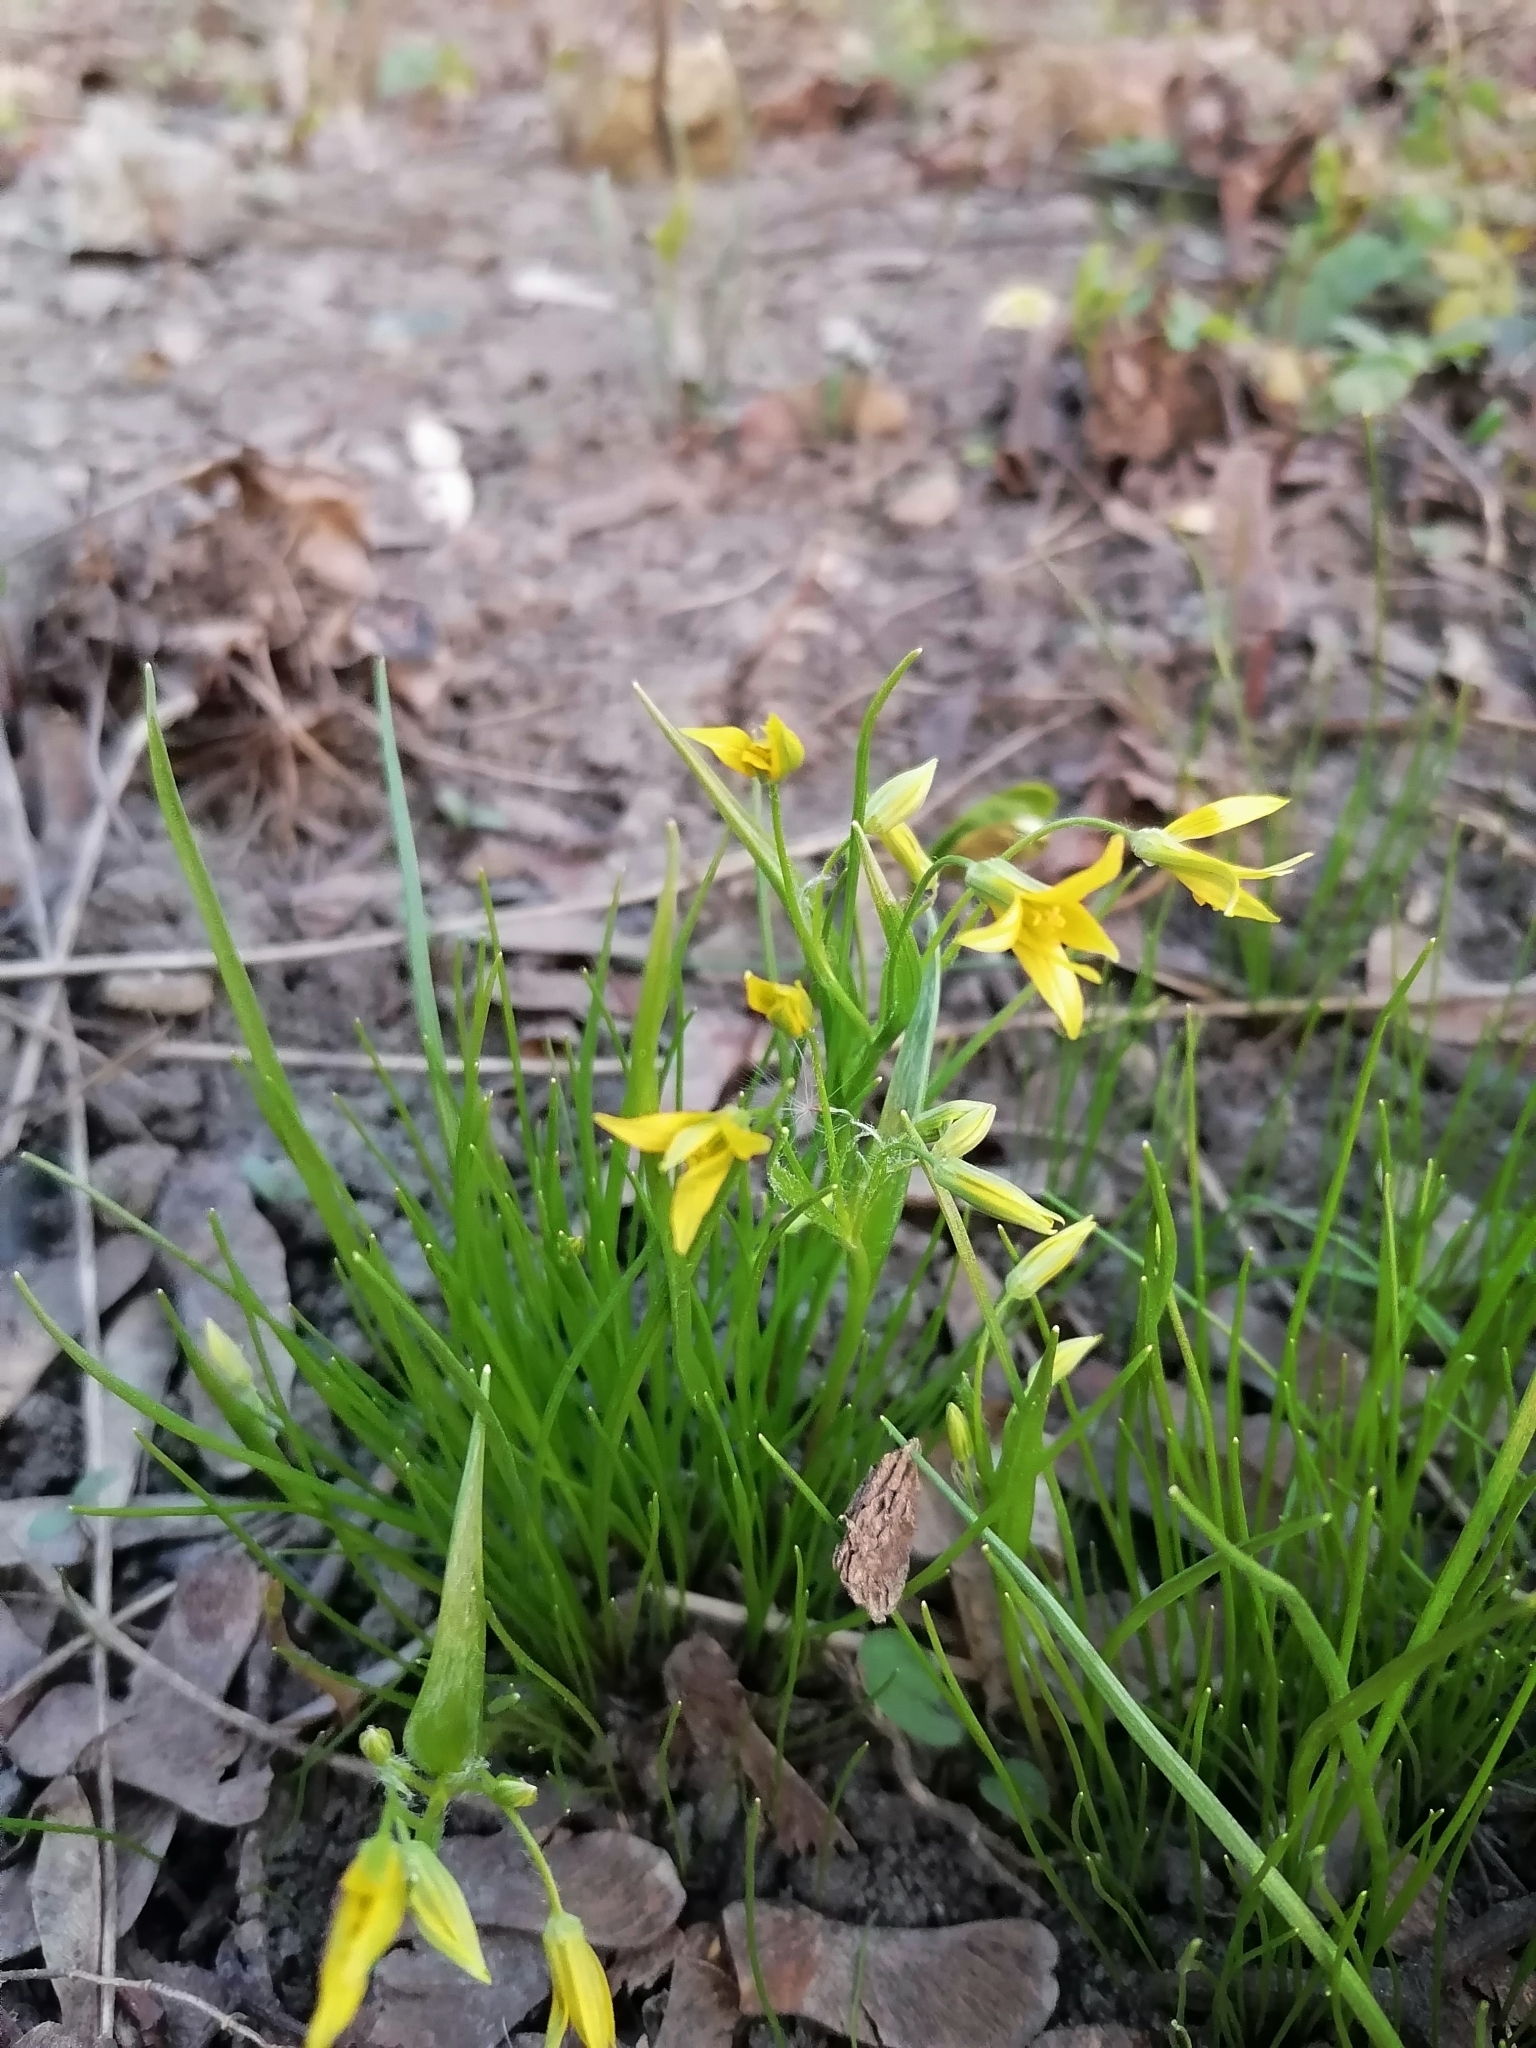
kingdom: Plantae
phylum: Tracheophyta
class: Liliopsida
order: Liliales
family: Liliaceae
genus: Gagea
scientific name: Gagea minima
